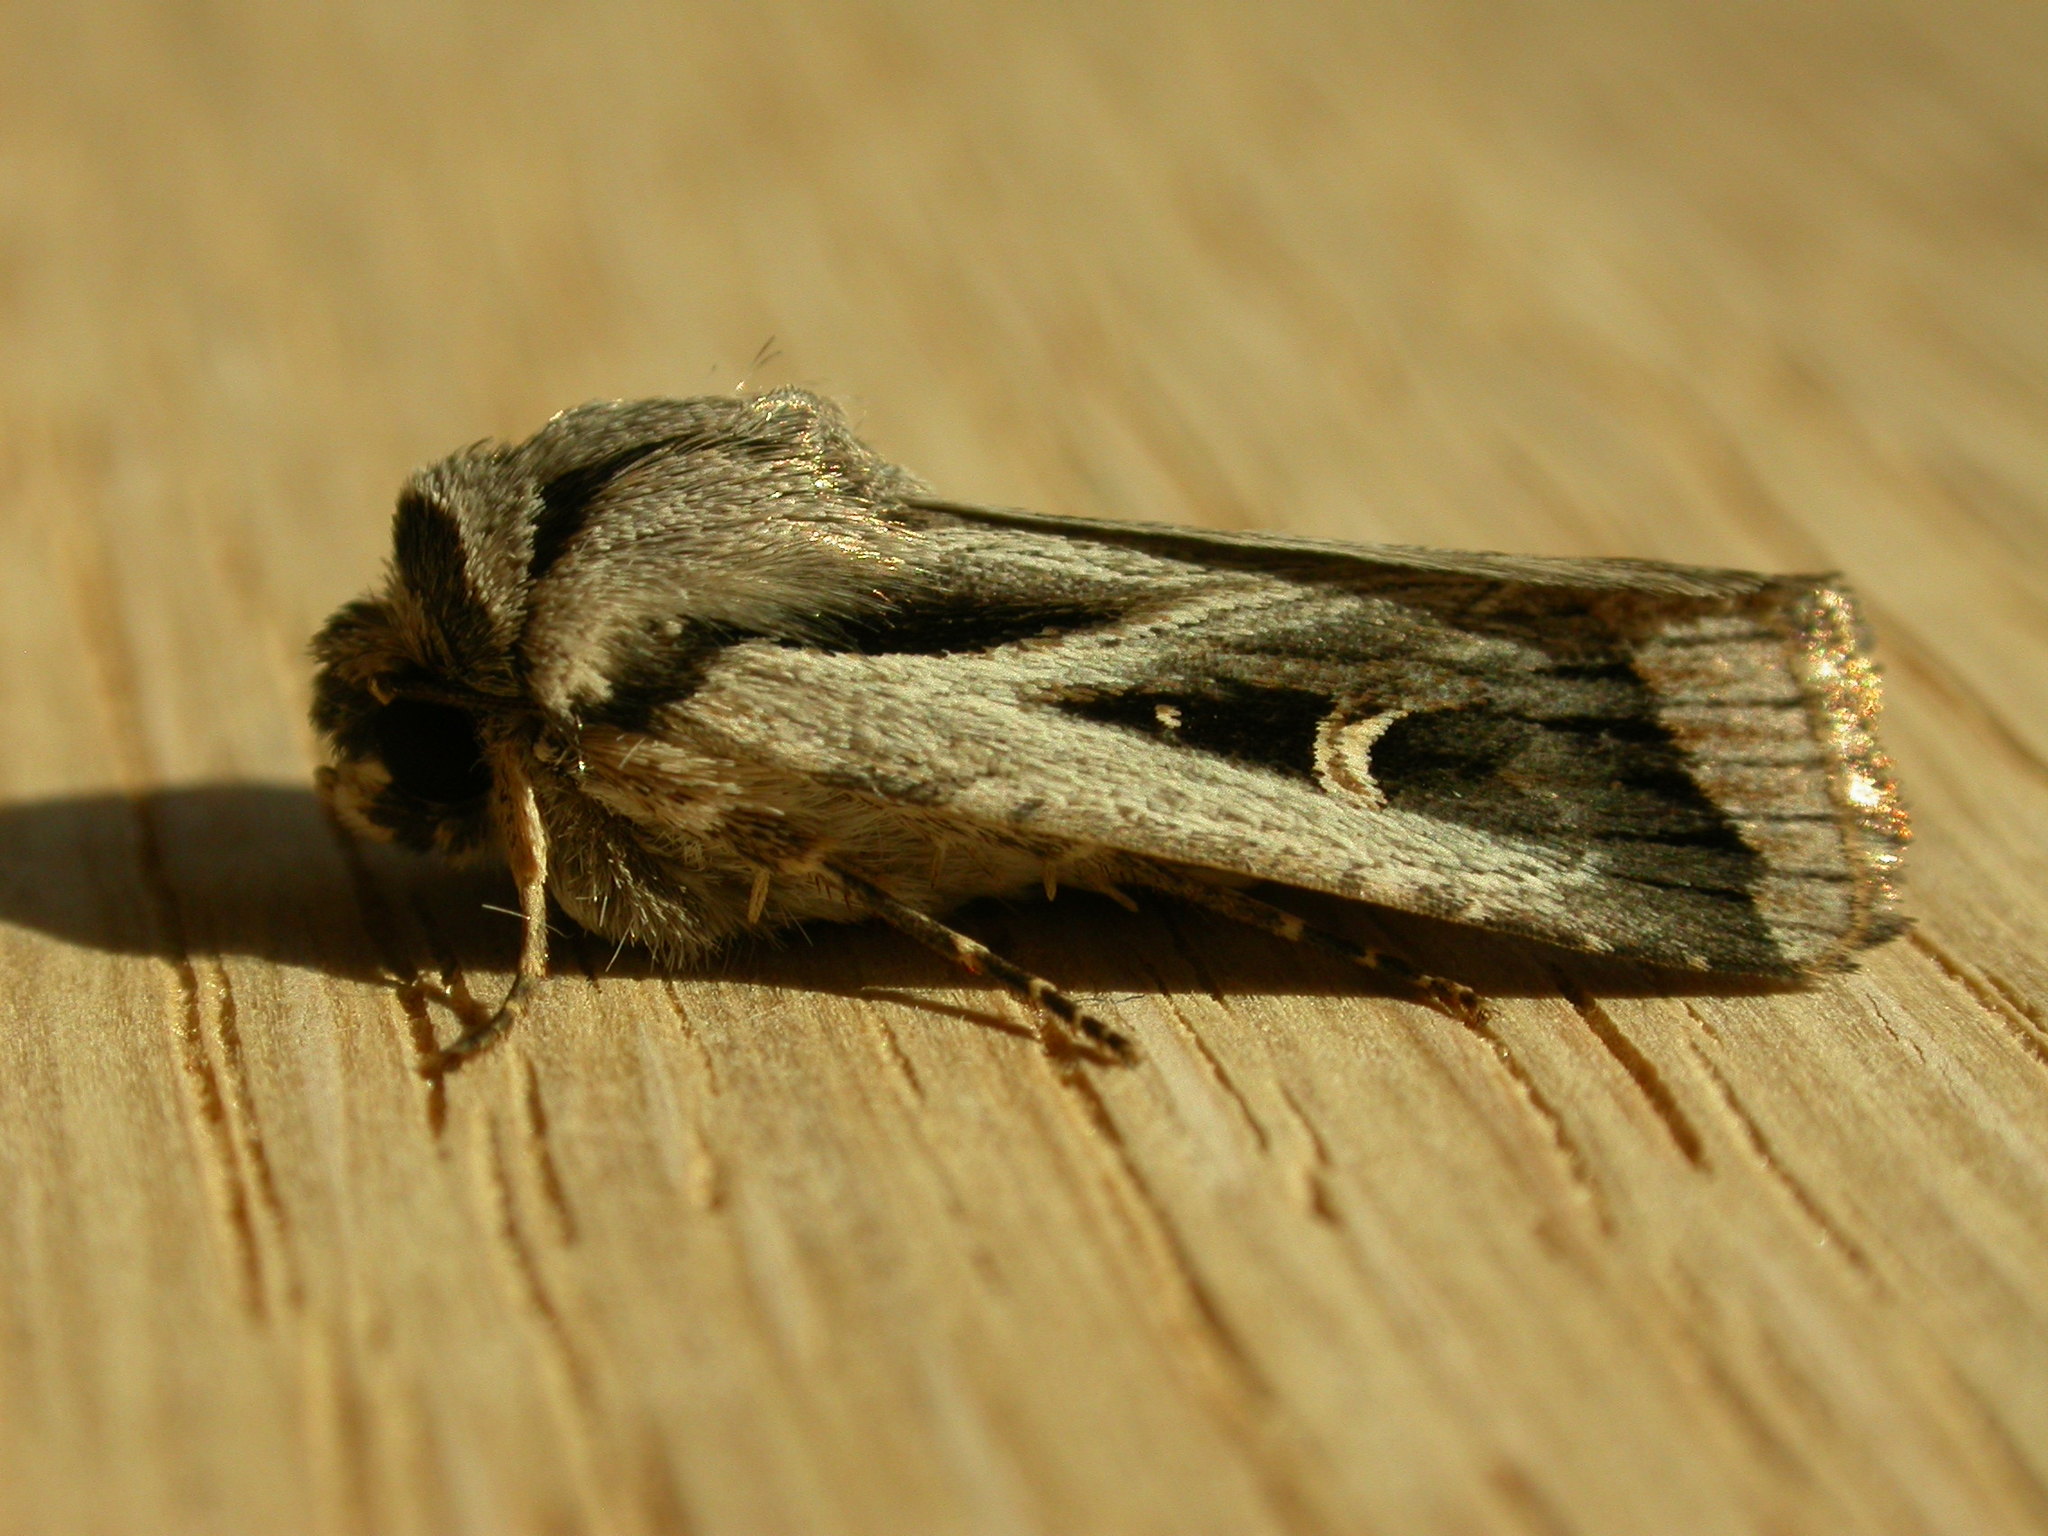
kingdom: Animalia
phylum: Arthropoda
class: Insecta
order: Lepidoptera
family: Noctuidae
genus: Proteuxoa
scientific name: Proteuxoa paragypsa
